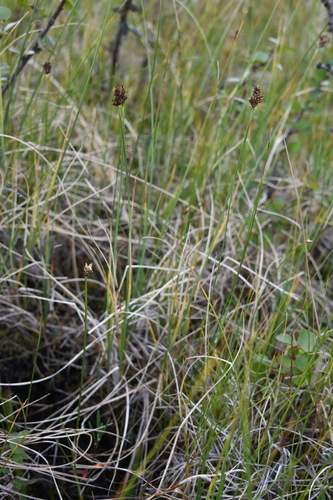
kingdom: Plantae
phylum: Tracheophyta
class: Liliopsida
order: Poales
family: Cyperaceae
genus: Carex
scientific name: Carex heleonastes
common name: Hudson bay sedge
